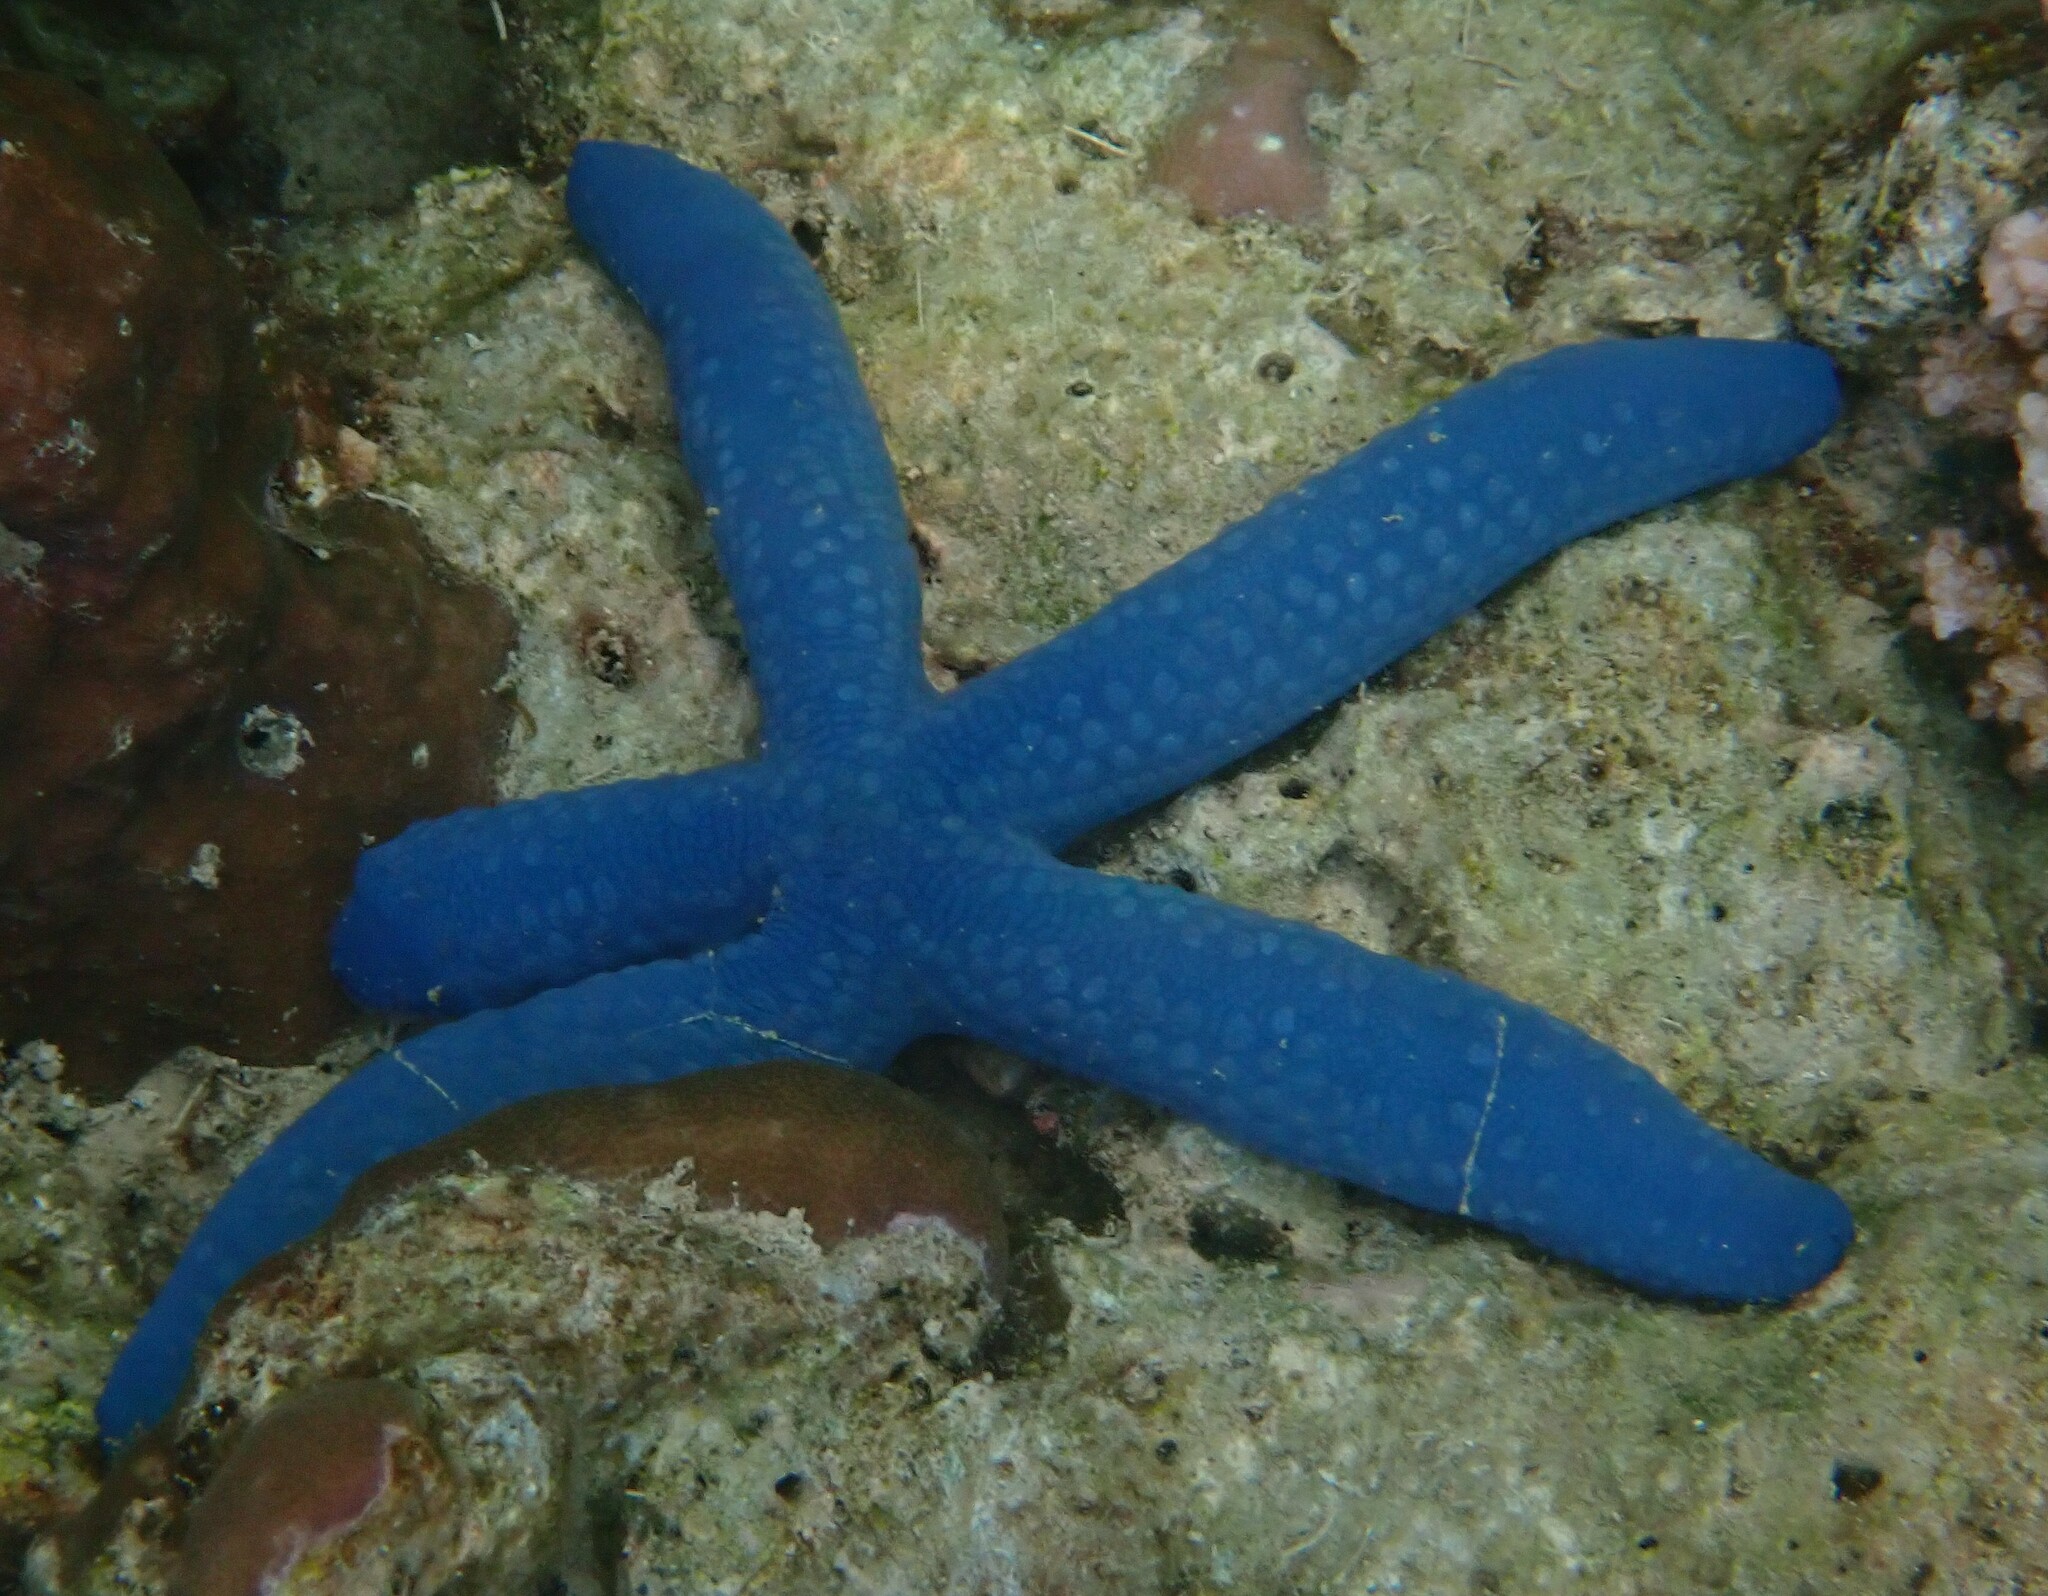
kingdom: Animalia
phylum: Echinodermata
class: Asteroidea
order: Valvatida
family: Ophidiasteridae
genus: Linckia
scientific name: Linckia laevigata
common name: Azure sea star
